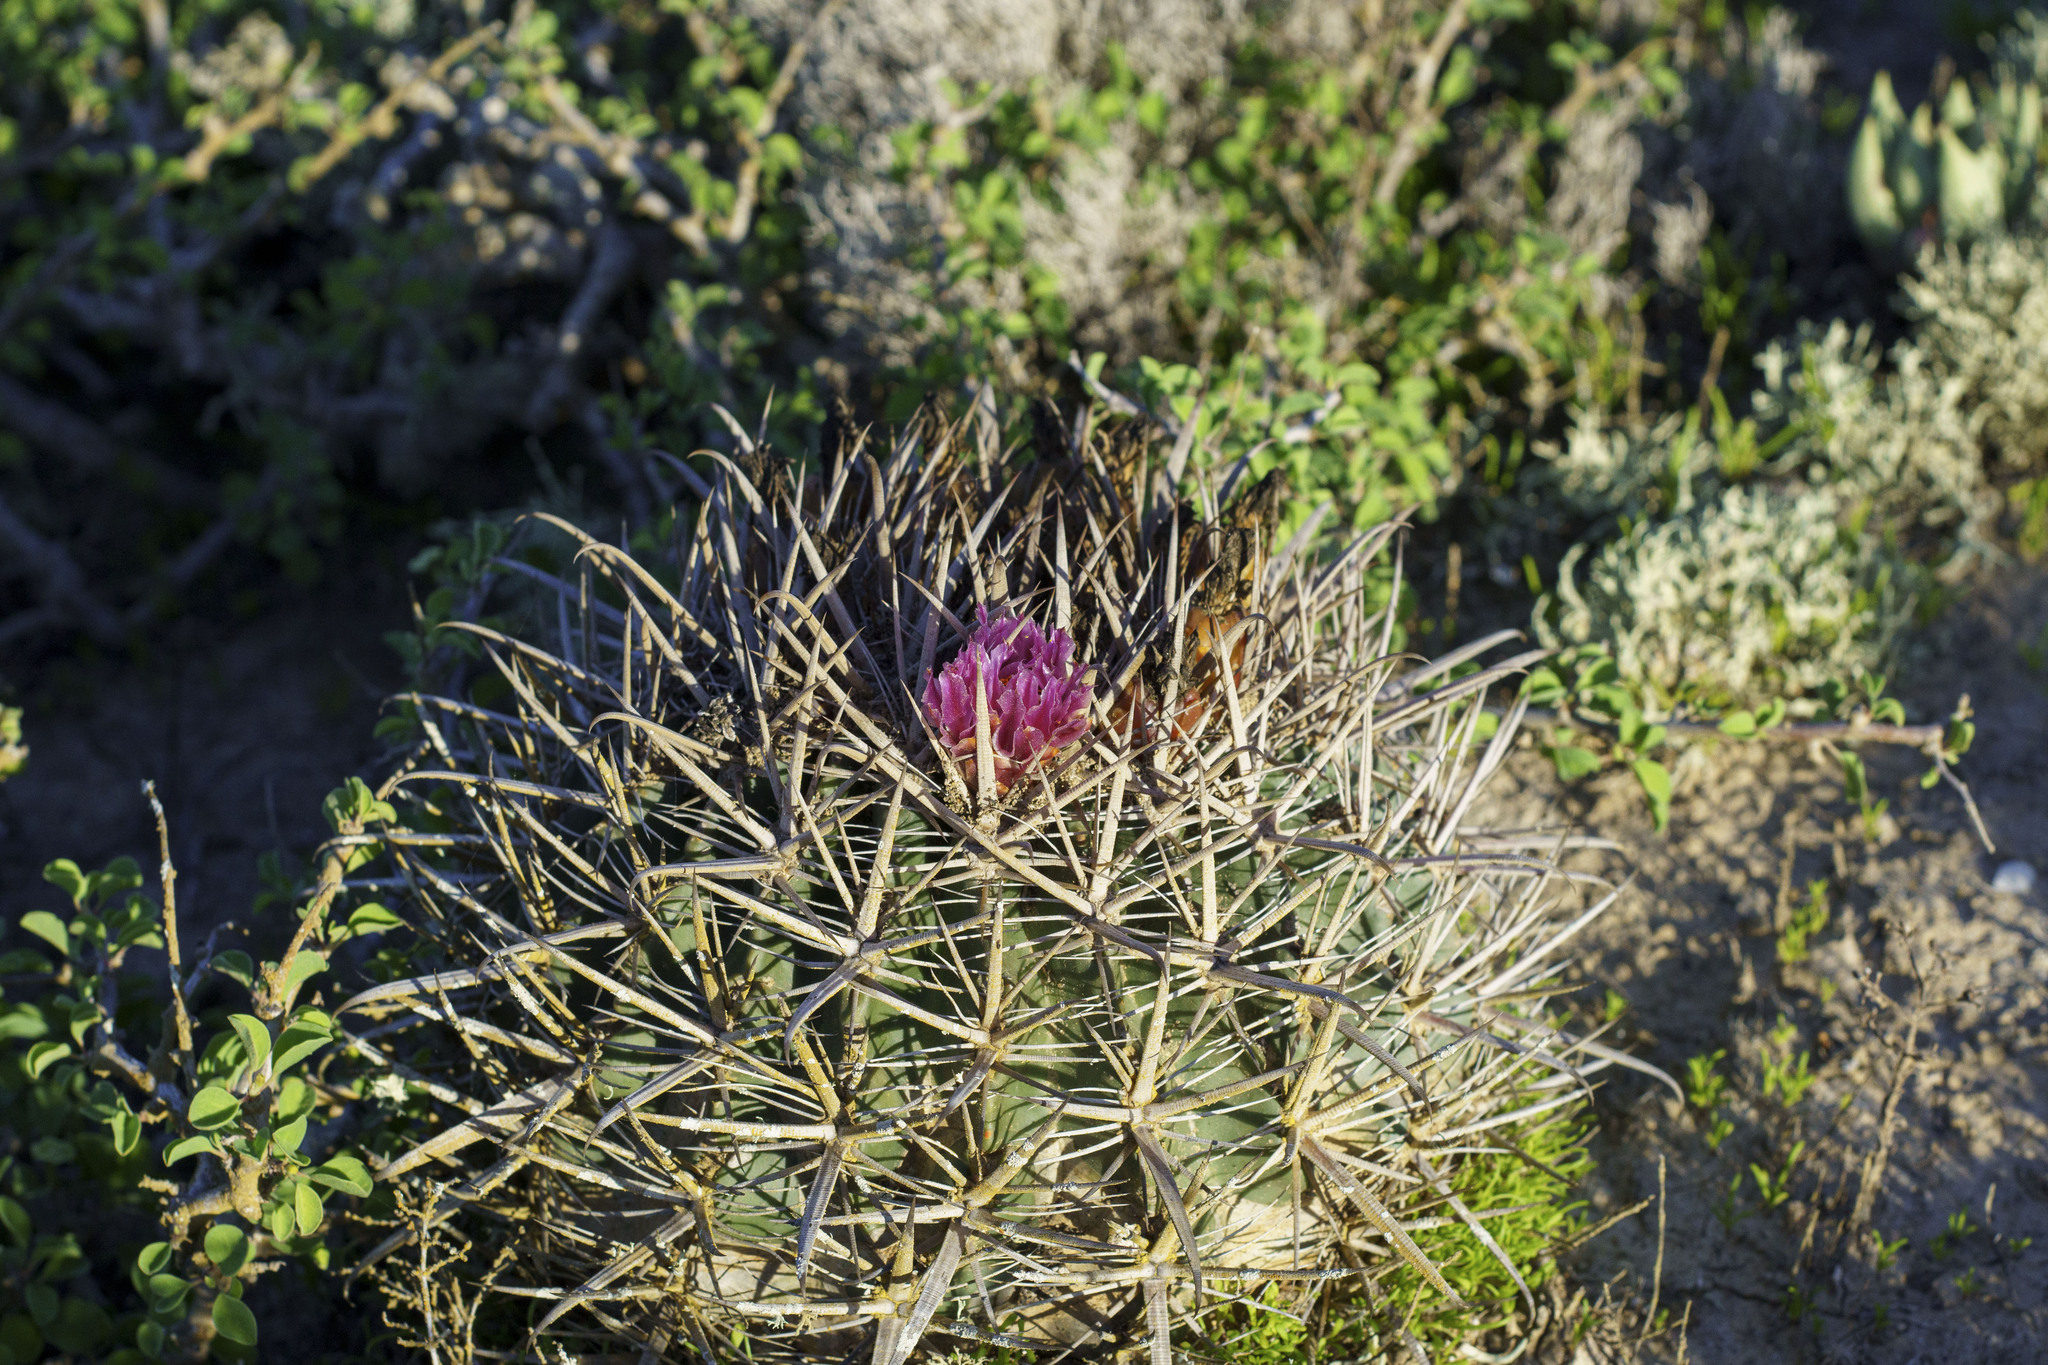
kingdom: Plantae
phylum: Tracheophyta
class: Magnoliopsida
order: Caryophyllales
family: Cactaceae
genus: Ferocactus
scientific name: Ferocactus fordii
